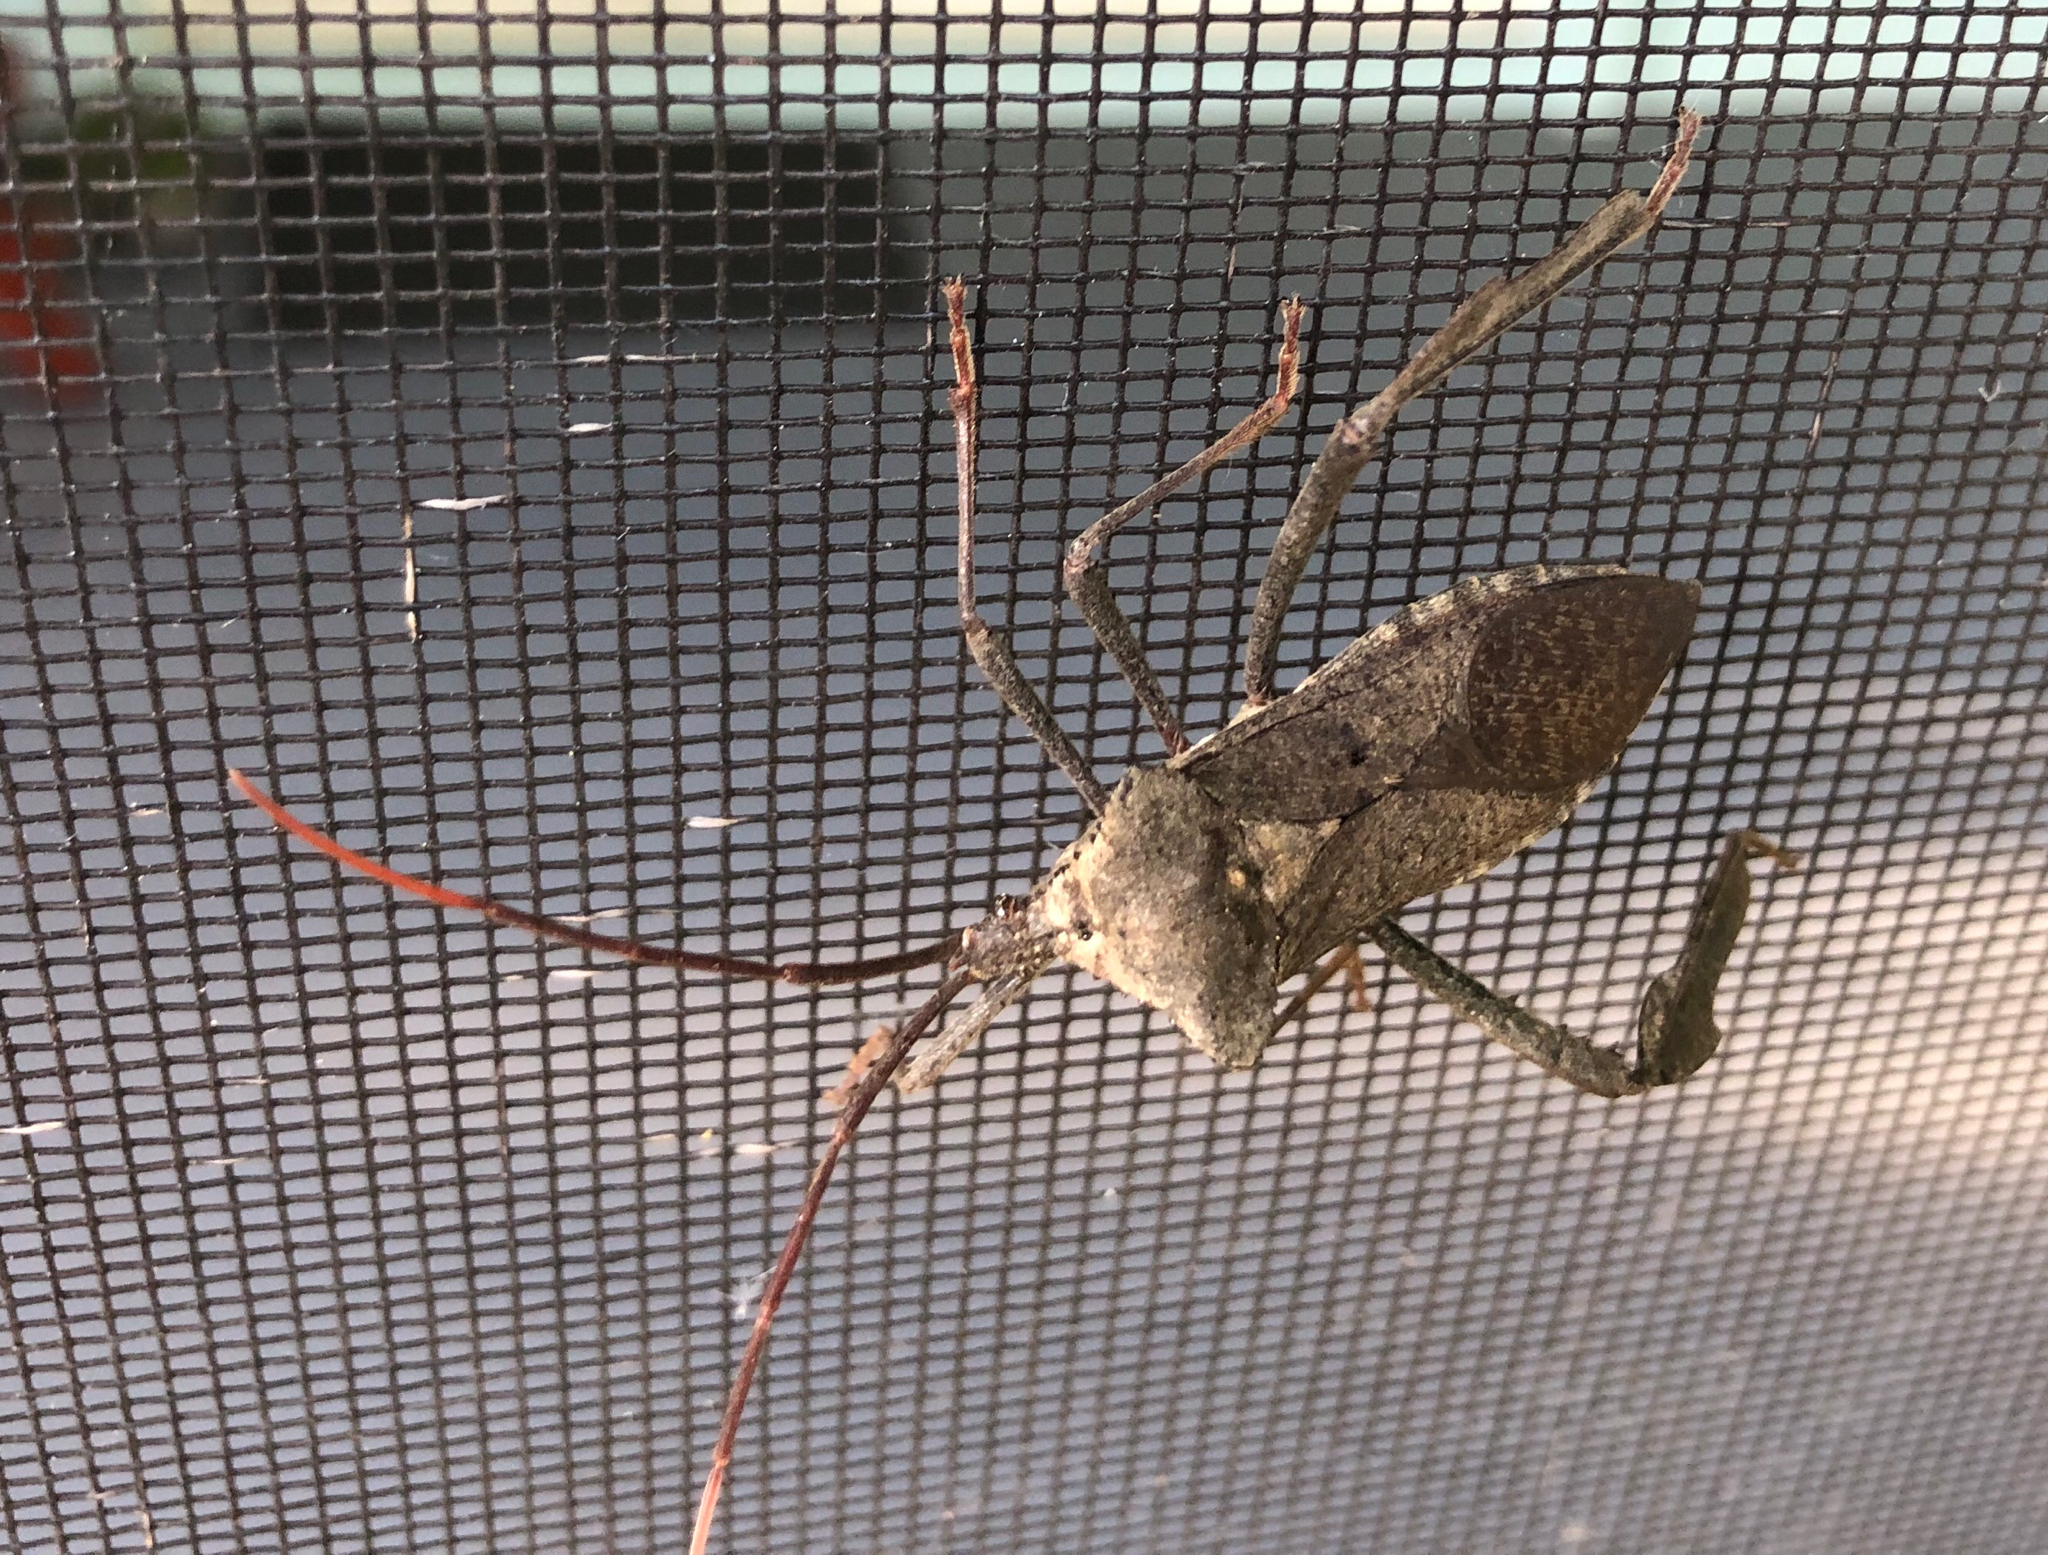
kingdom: Animalia
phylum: Arthropoda
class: Insecta
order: Hemiptera
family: Coreidae
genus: Acanthocephala
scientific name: Acanthocephala declivis
